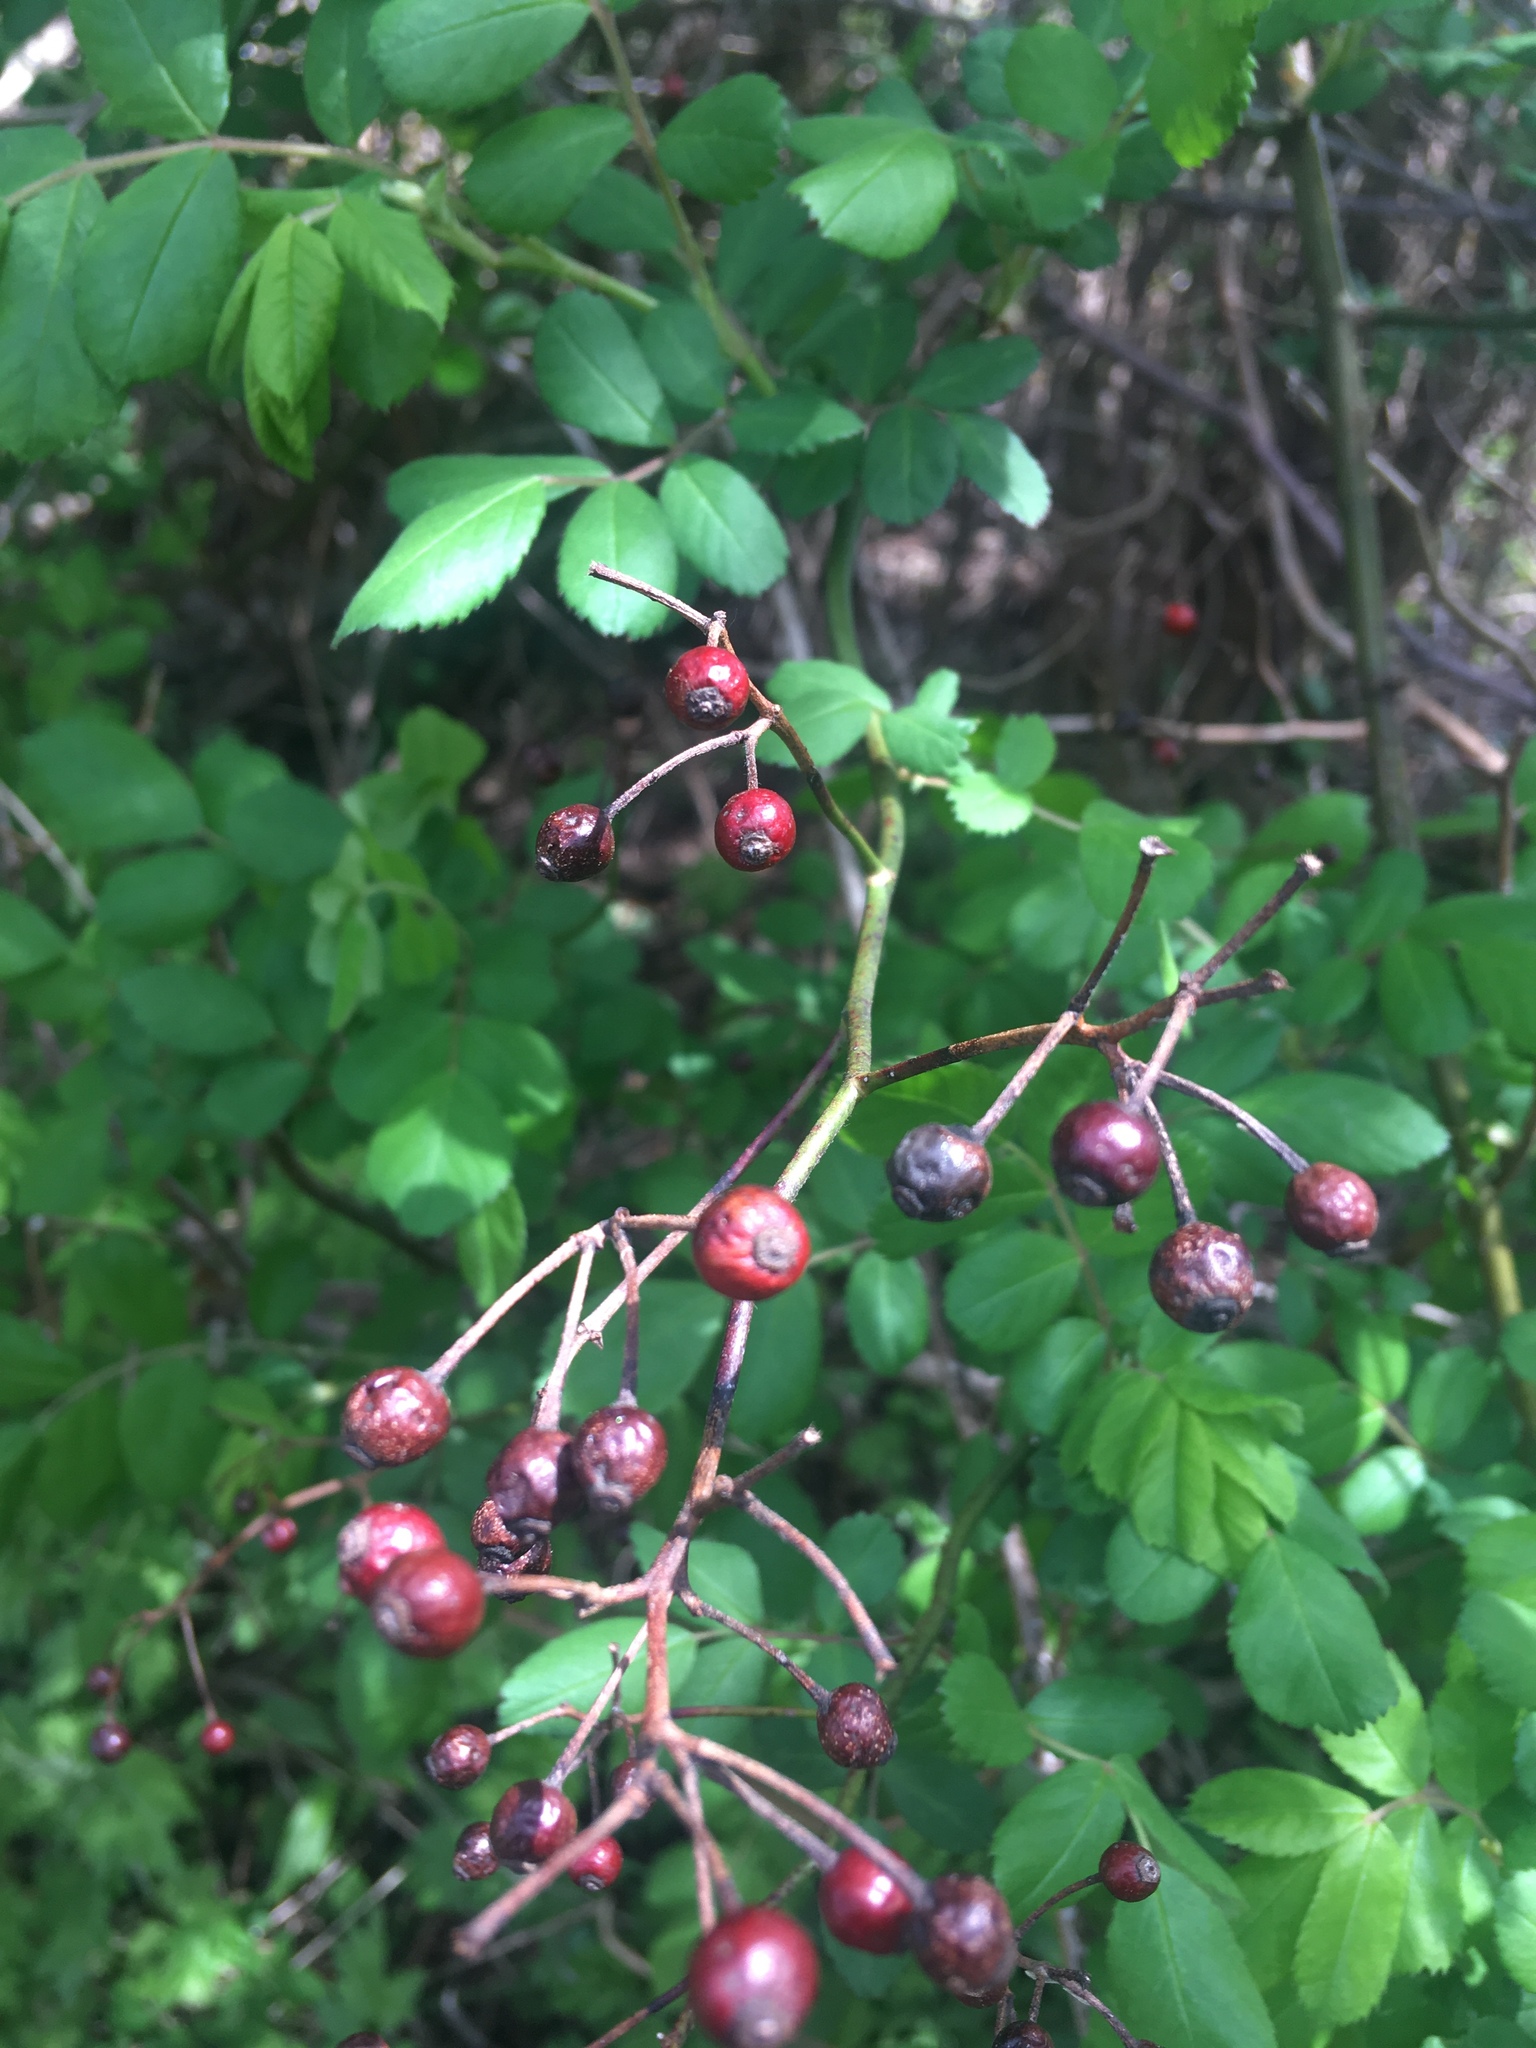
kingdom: Plantae
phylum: Tracheophyta
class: Magnoliopsida
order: Rosales
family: Rosaceae
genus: Rosa
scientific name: Rosa multiflora
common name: Multiflora rose
